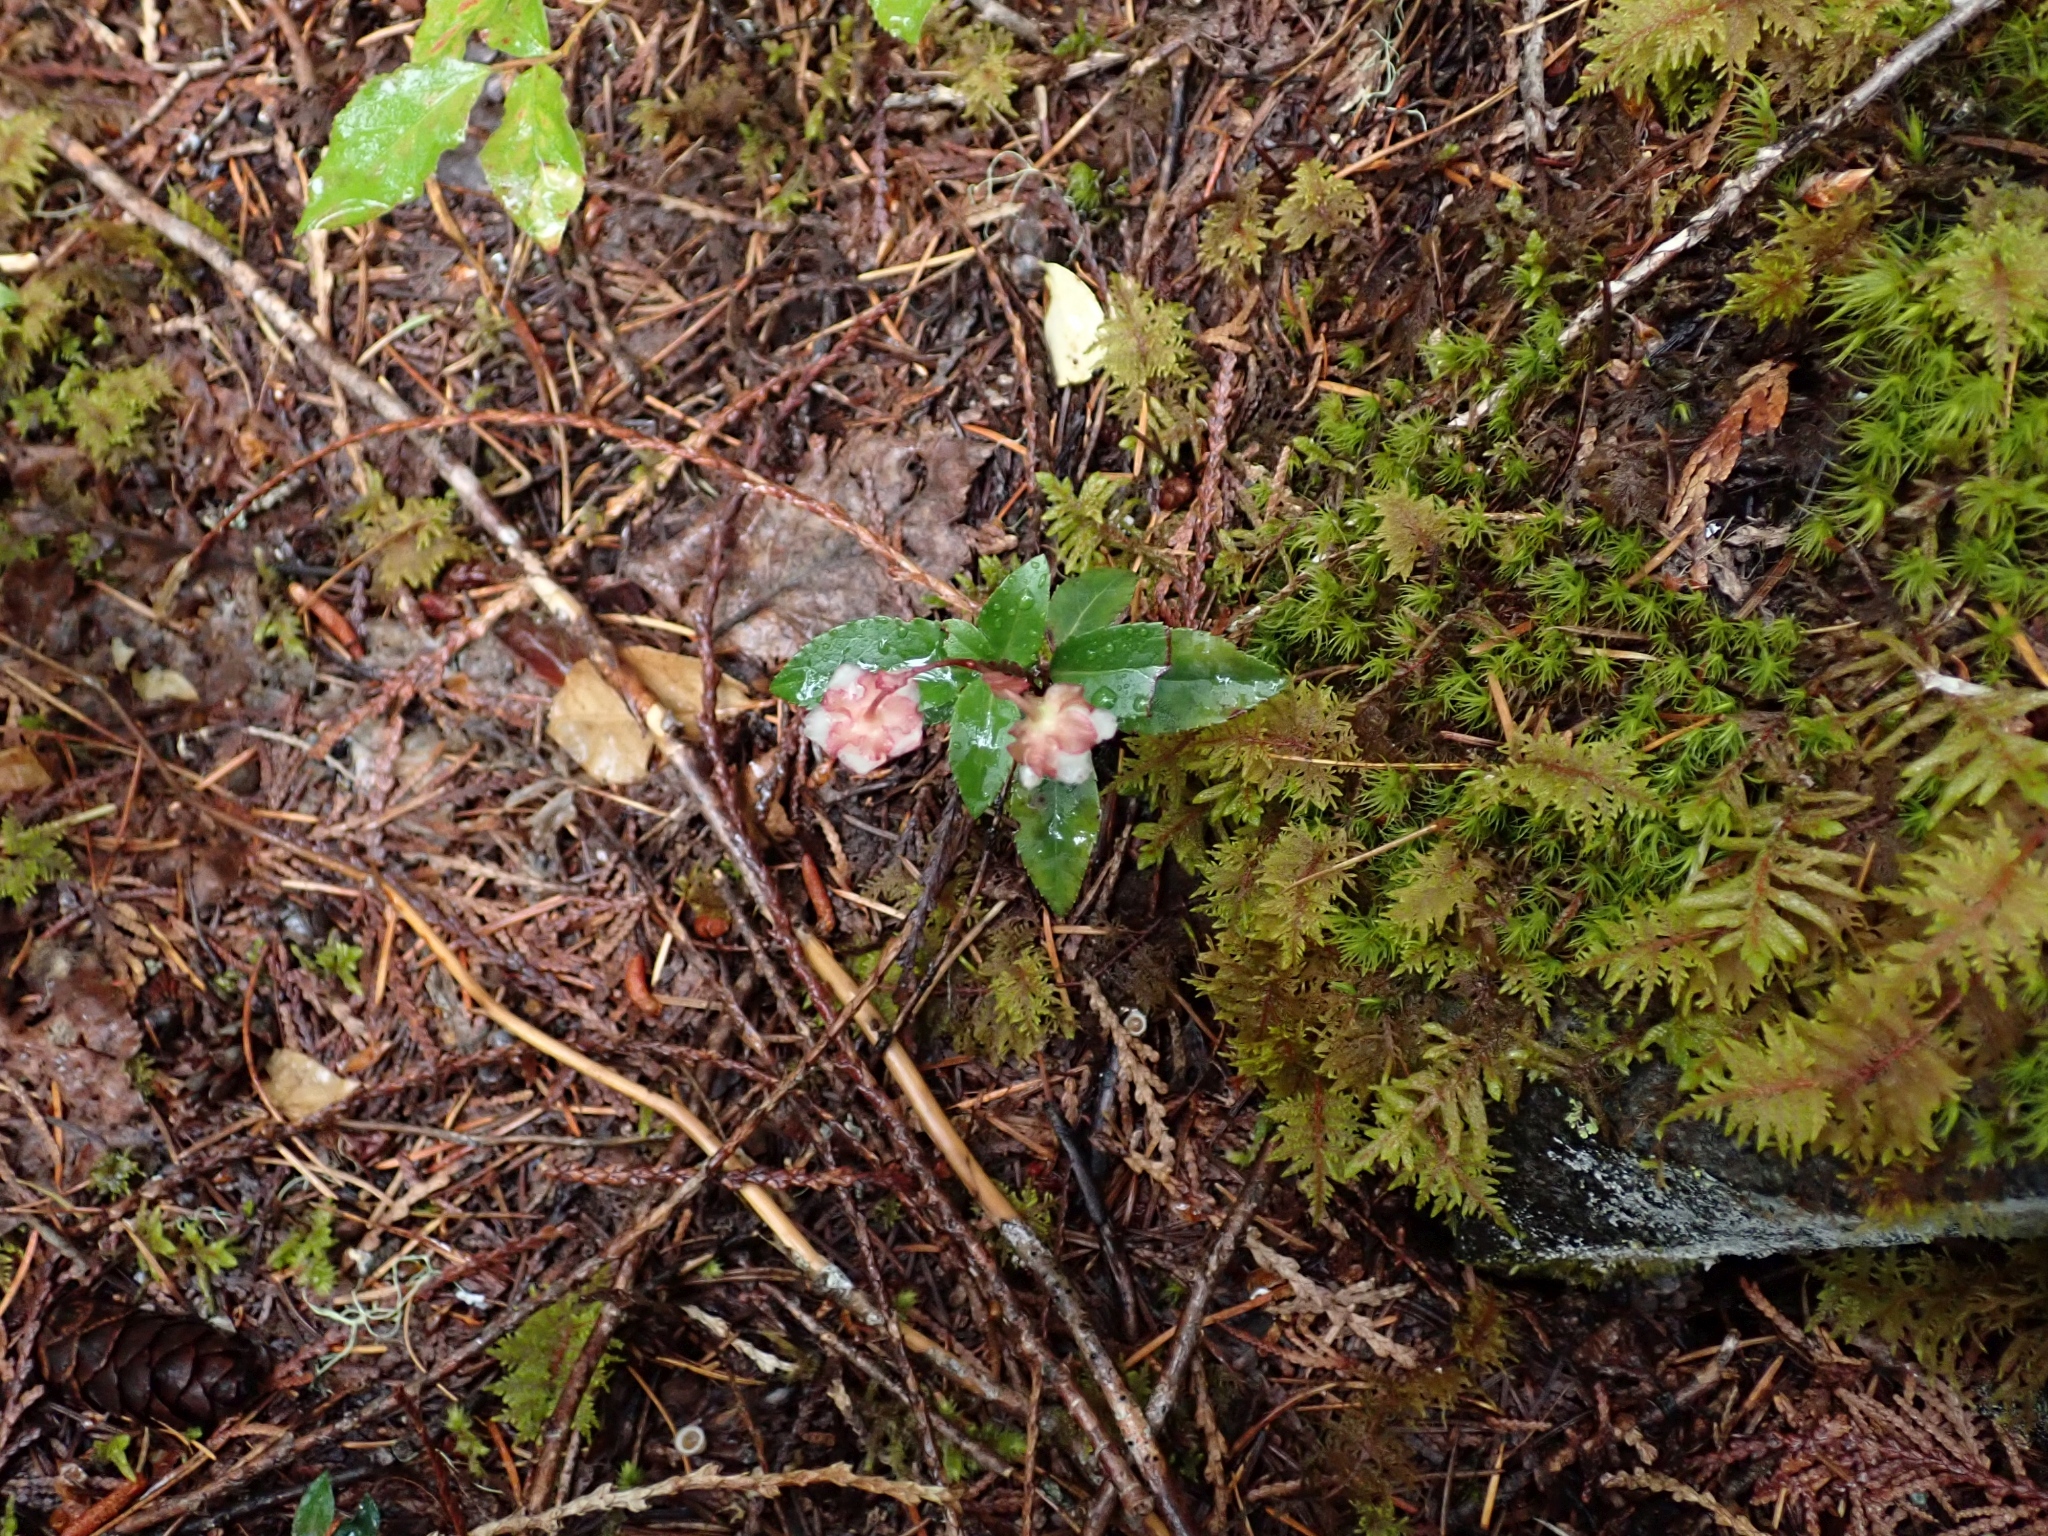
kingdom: Plantae
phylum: Tracheophyta
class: Magnoliopsida
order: Ericales
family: Ericaceae
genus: Chimaphila
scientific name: Chimaphila menziesii
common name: Menzies' pipsissewa
